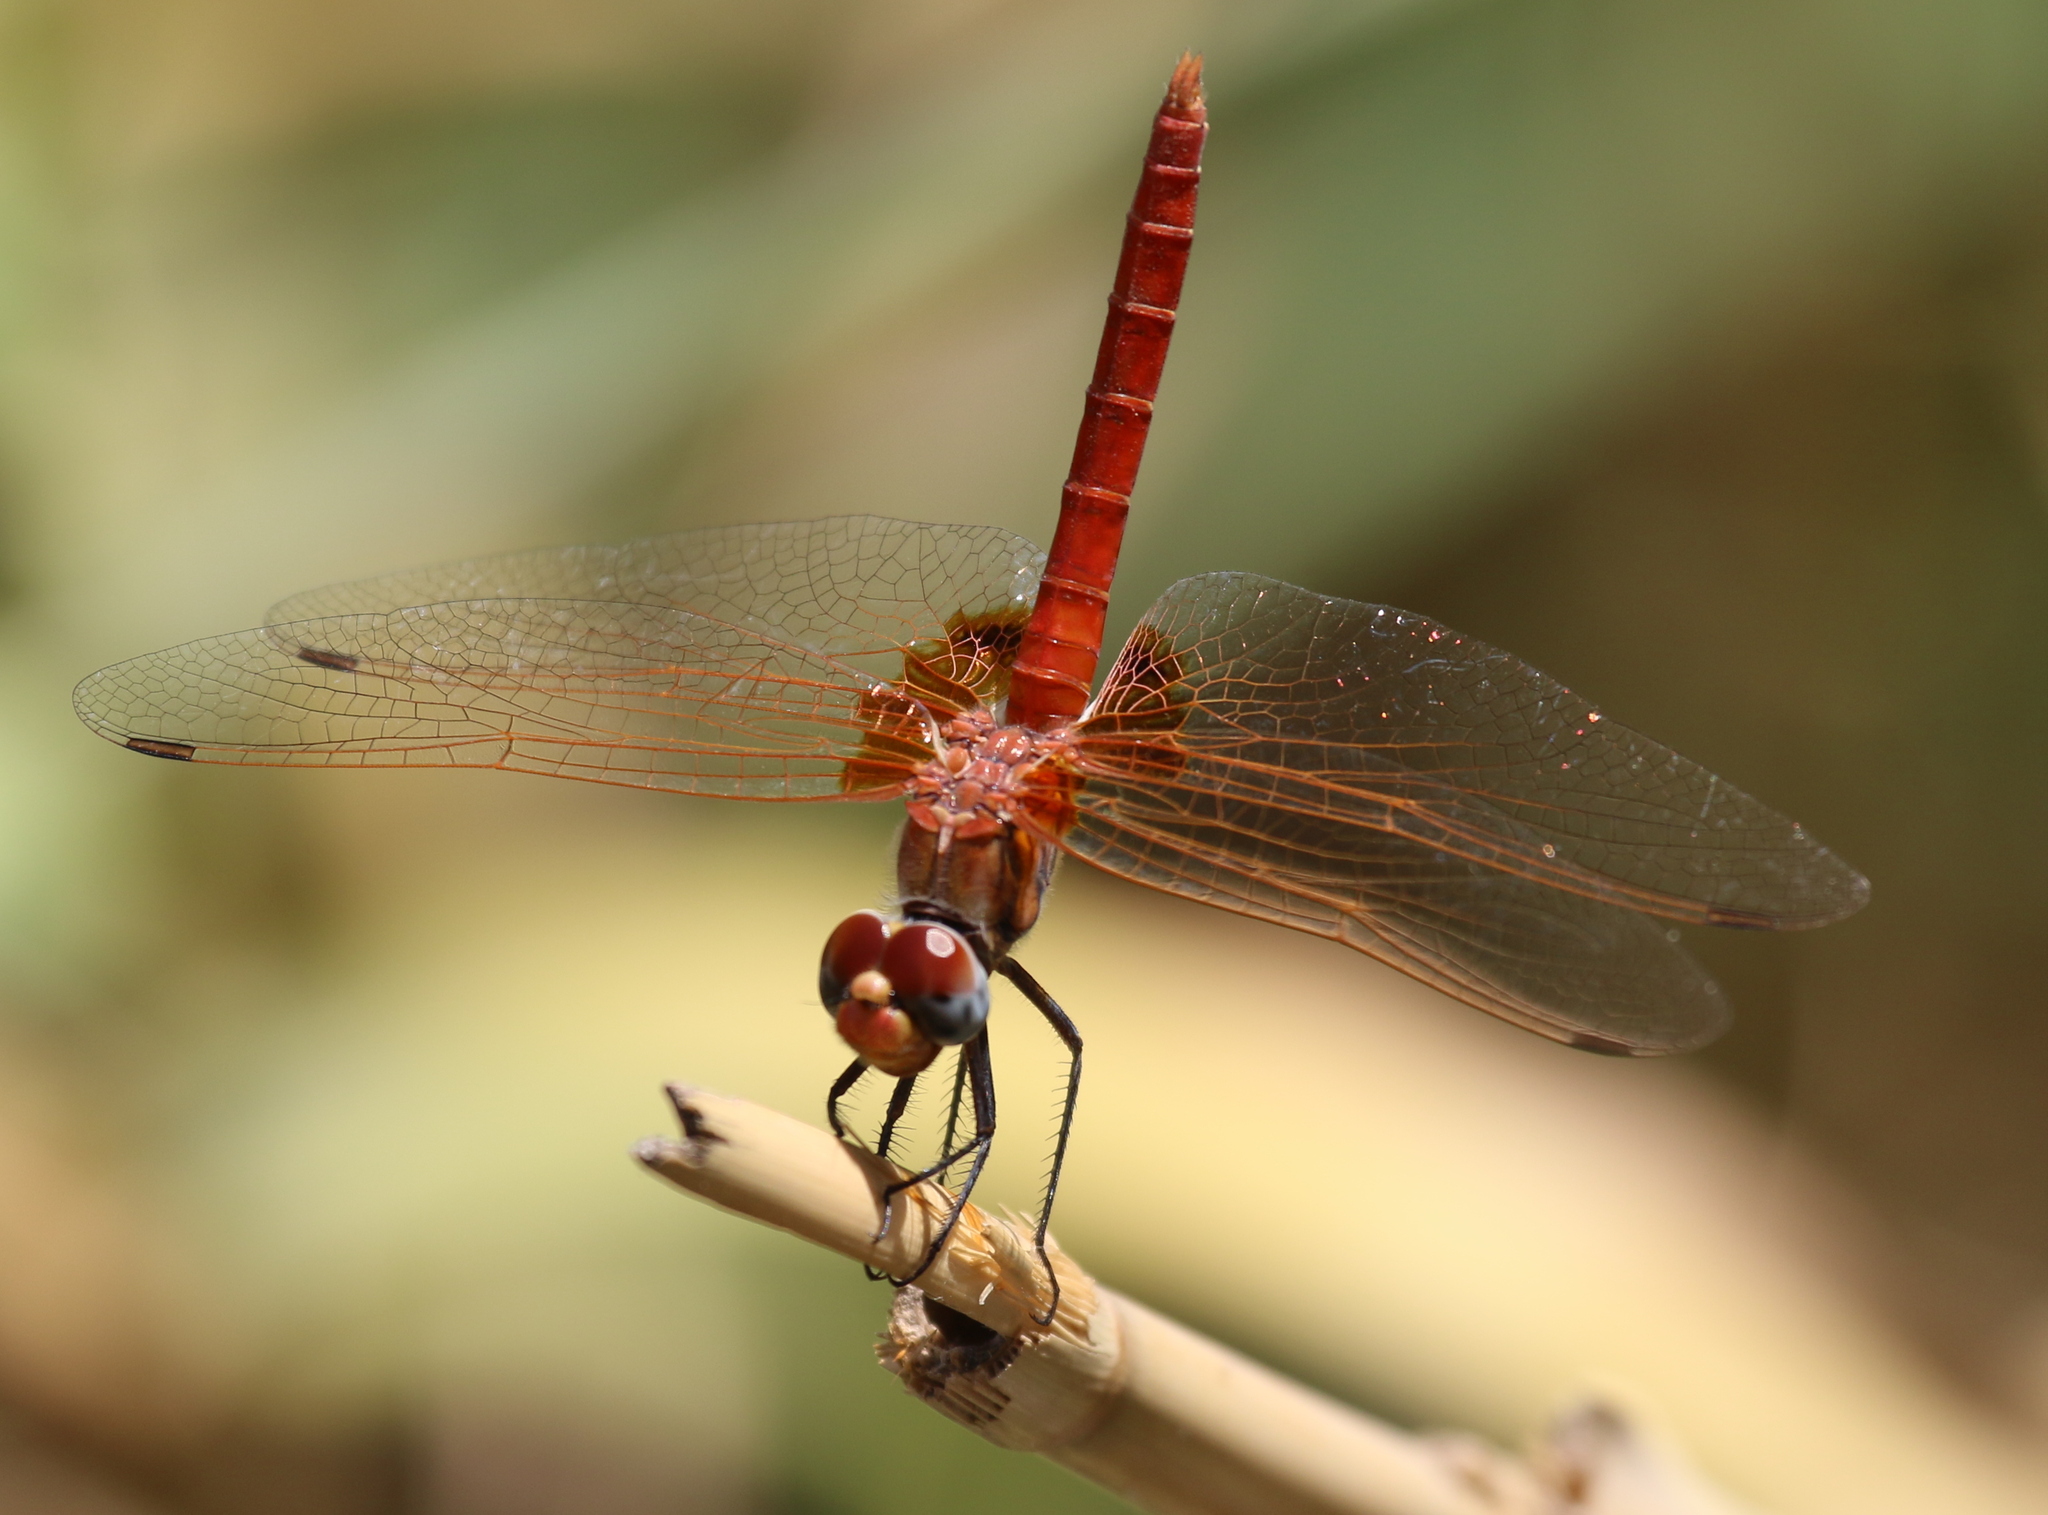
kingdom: Animalia
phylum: Arthropoda
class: Insecta
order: Odonata
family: Libellulidae
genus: Urothemis
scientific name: Urothemis thomasi
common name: Desert basker
